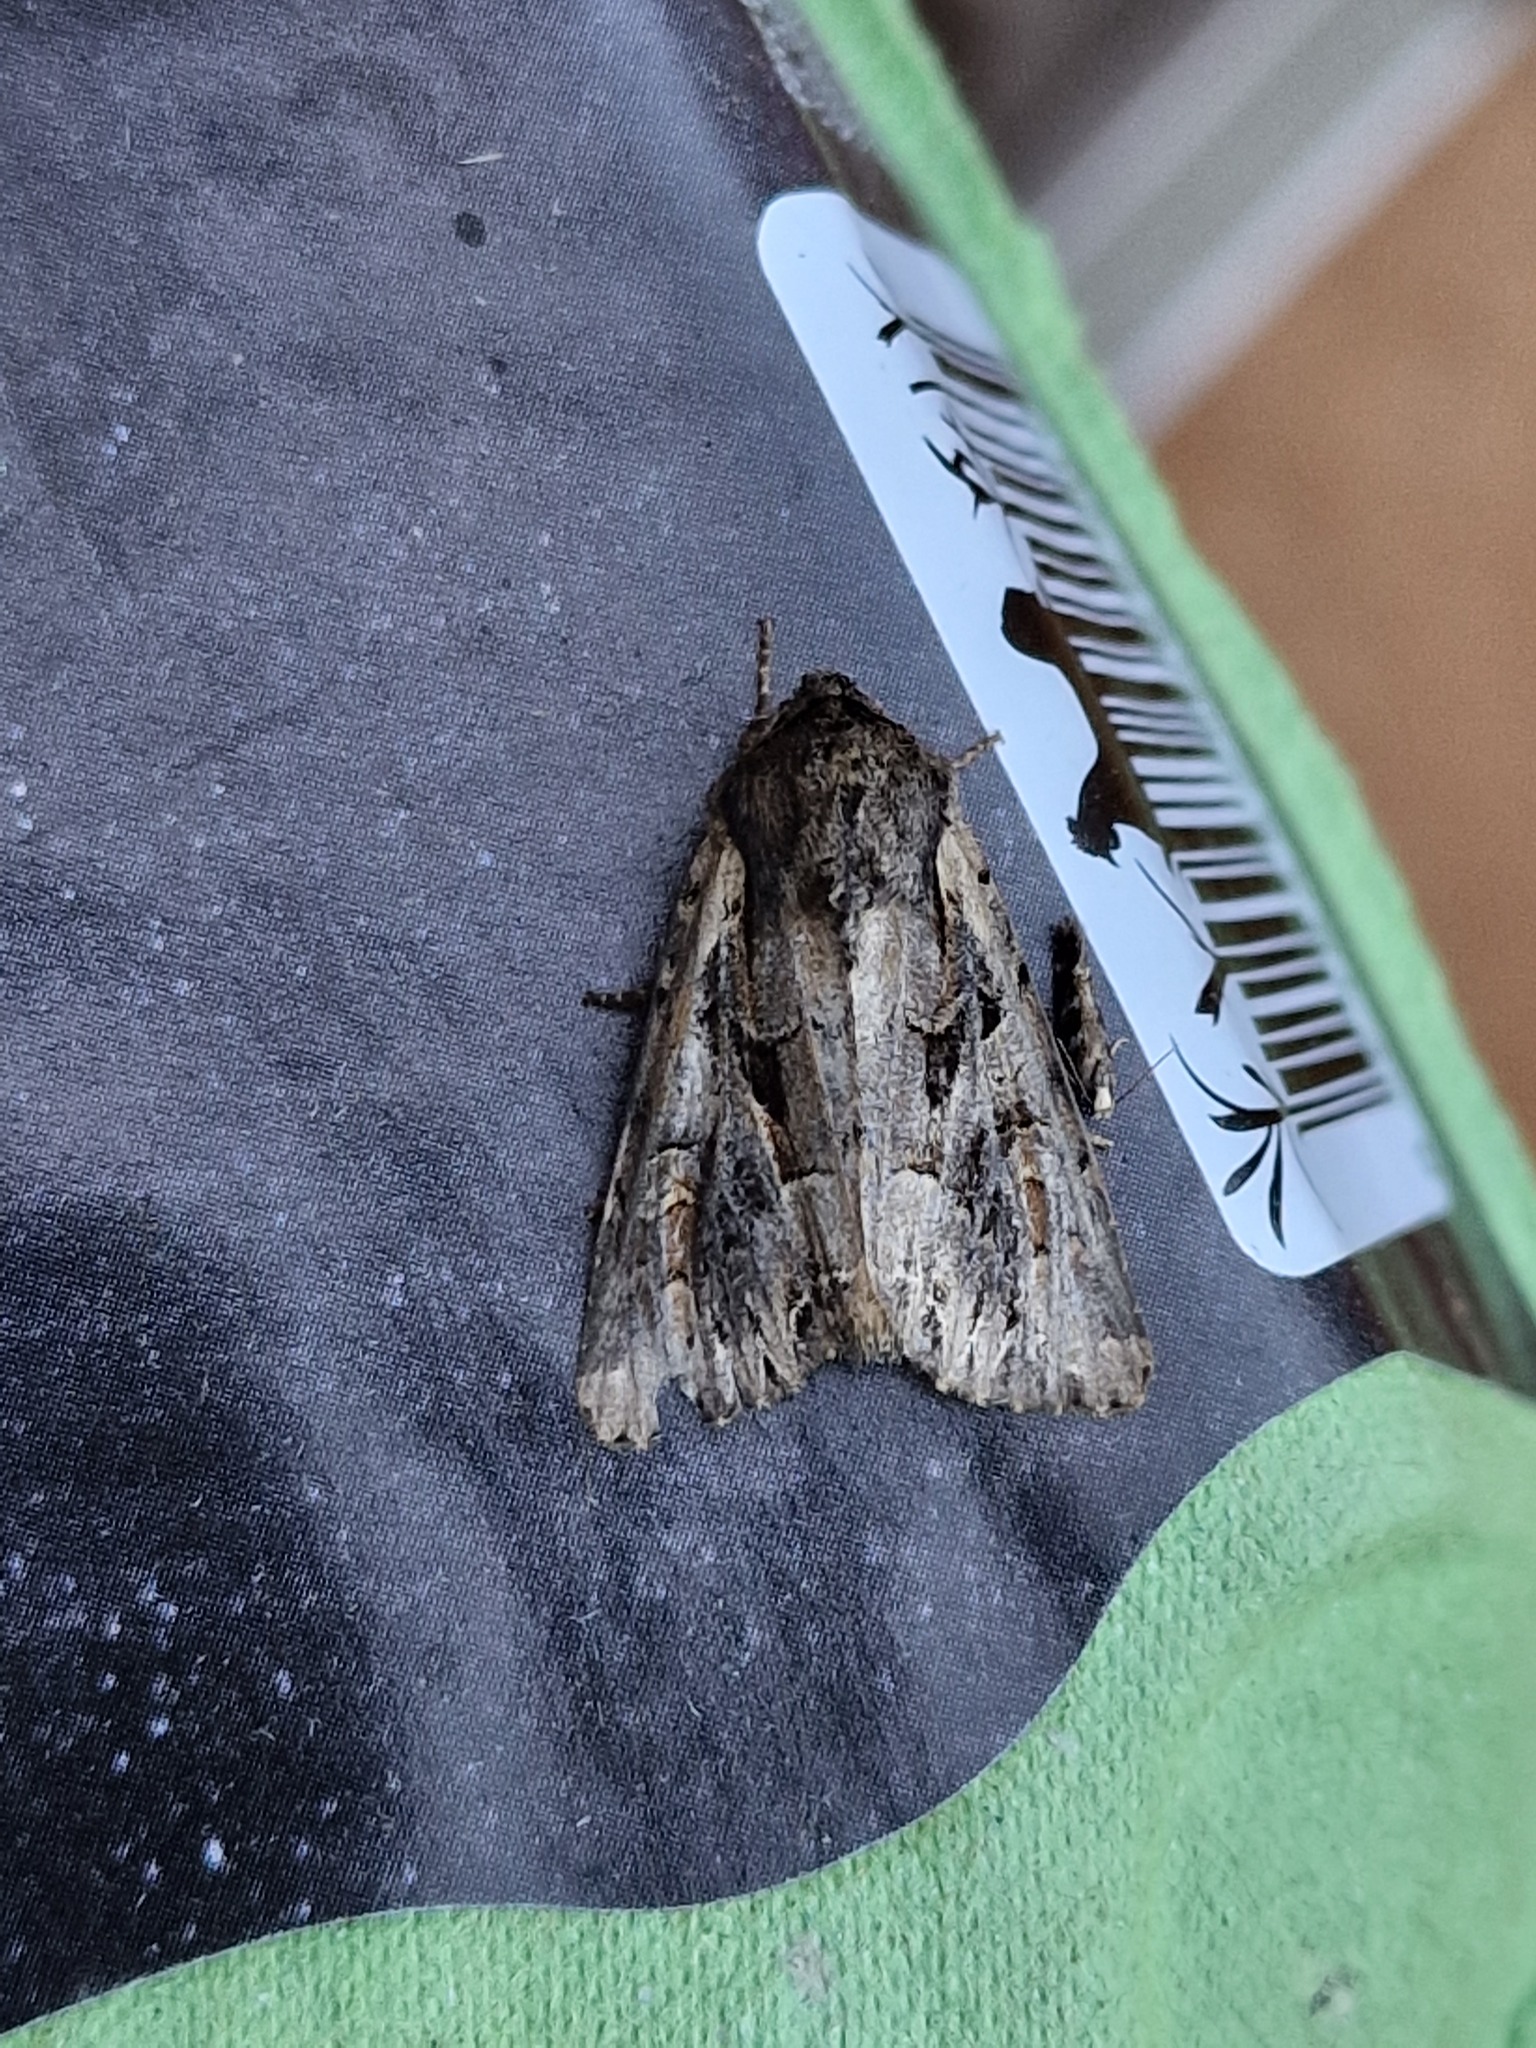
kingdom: Animalia
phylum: Arthropoda
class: Insecta
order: Lepidoptera
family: Noctuidae
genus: Lacanobia
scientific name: Lacanobia suasa
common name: Dog's tooth
